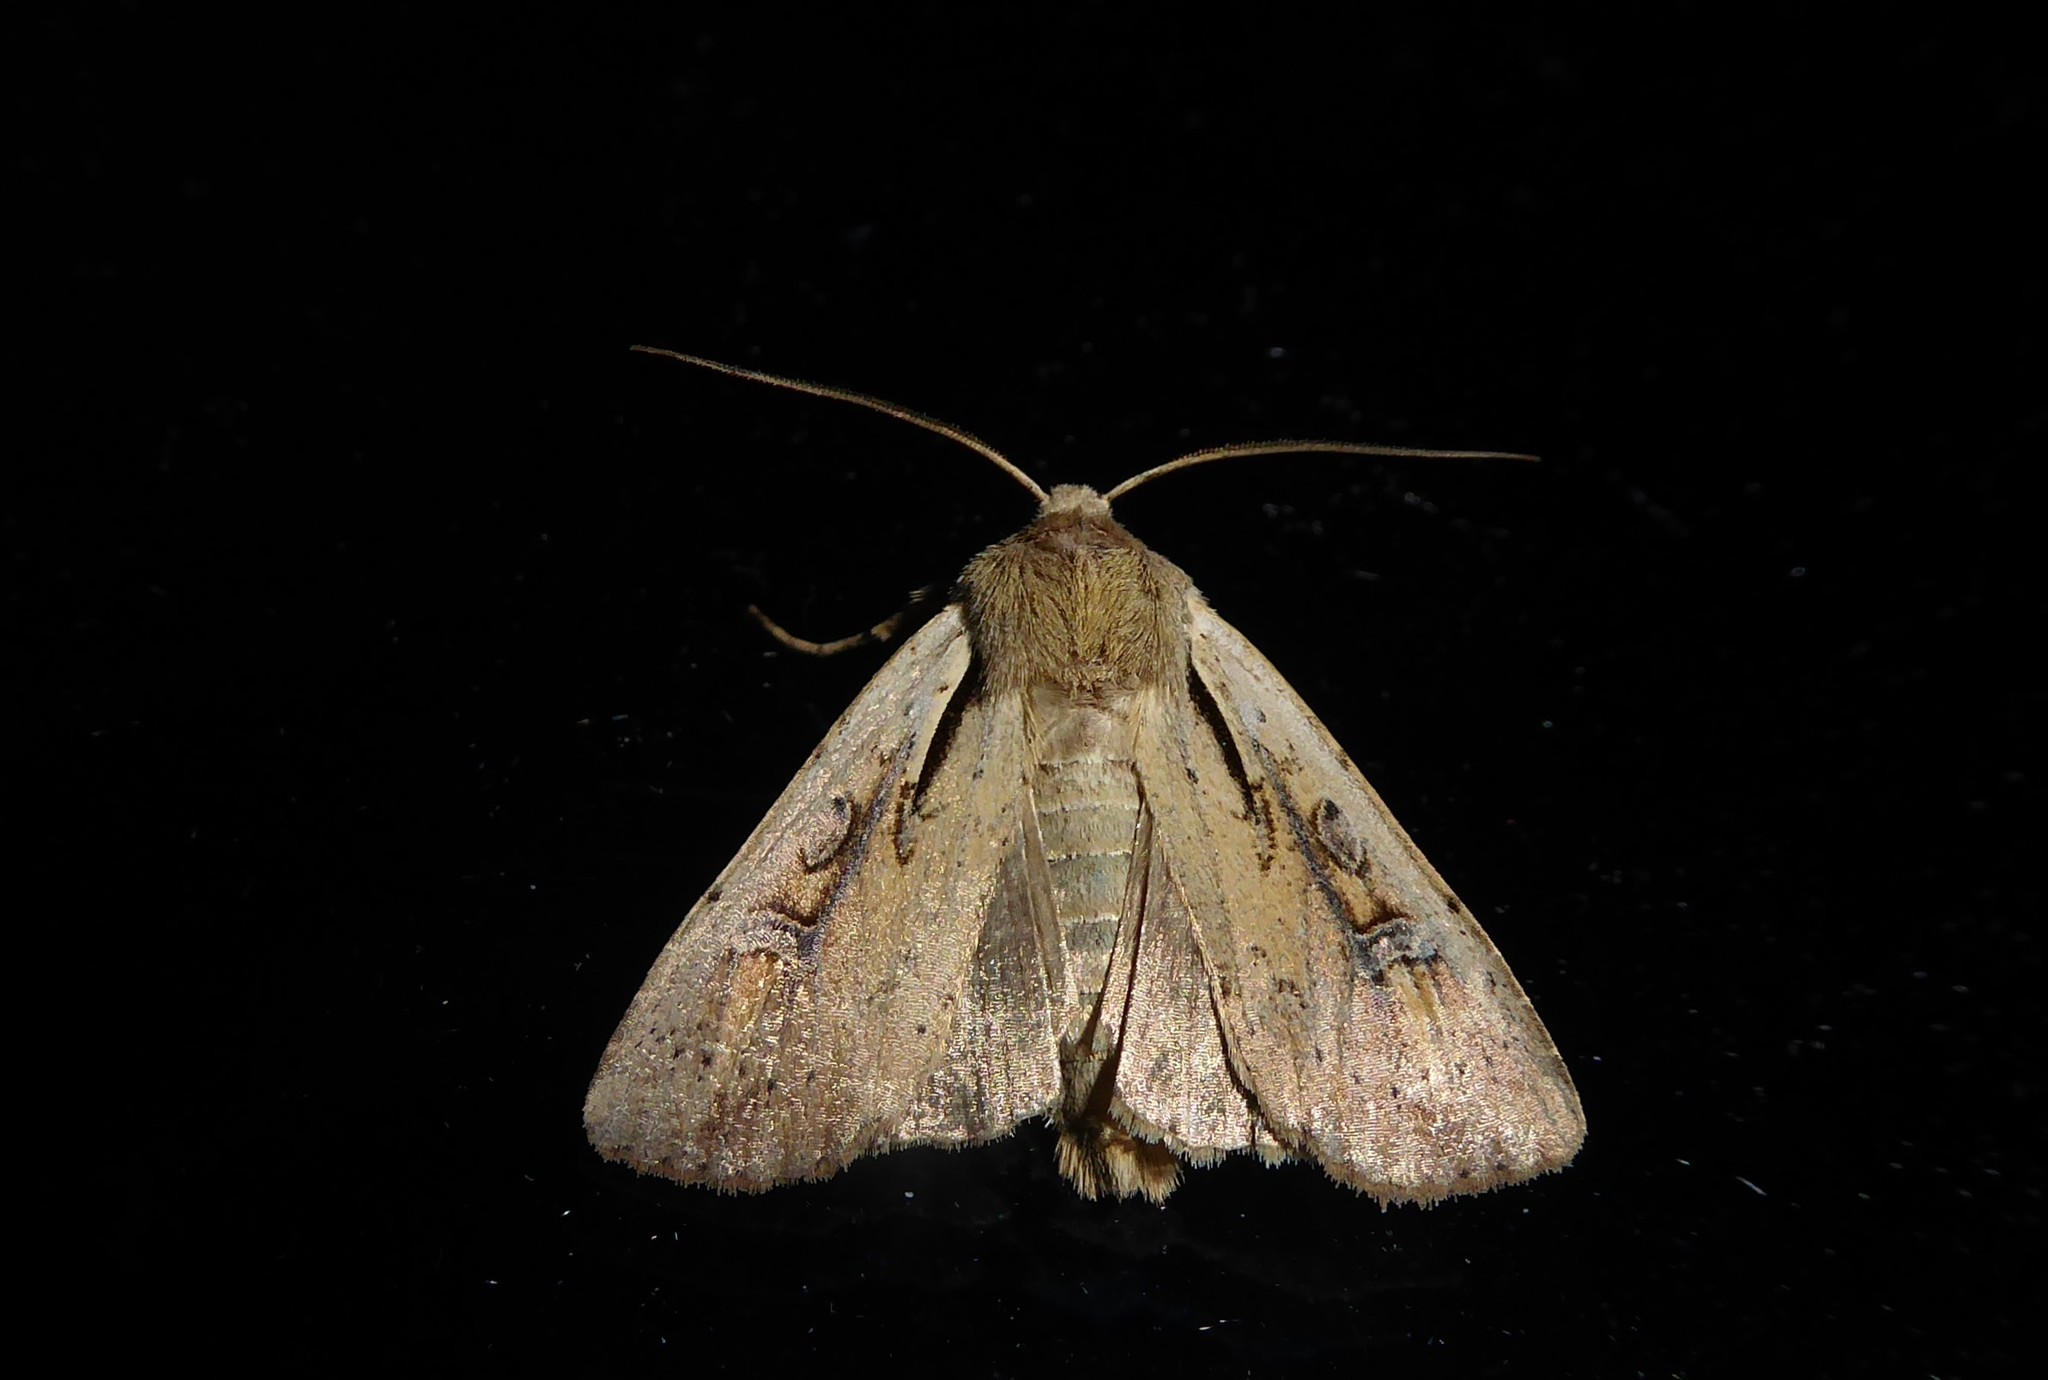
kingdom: Animalia
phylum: Arthropoda
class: Insecta
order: Lepidoptera
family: Noctuidae
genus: Ichneutica
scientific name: Ichneutica atristriga
